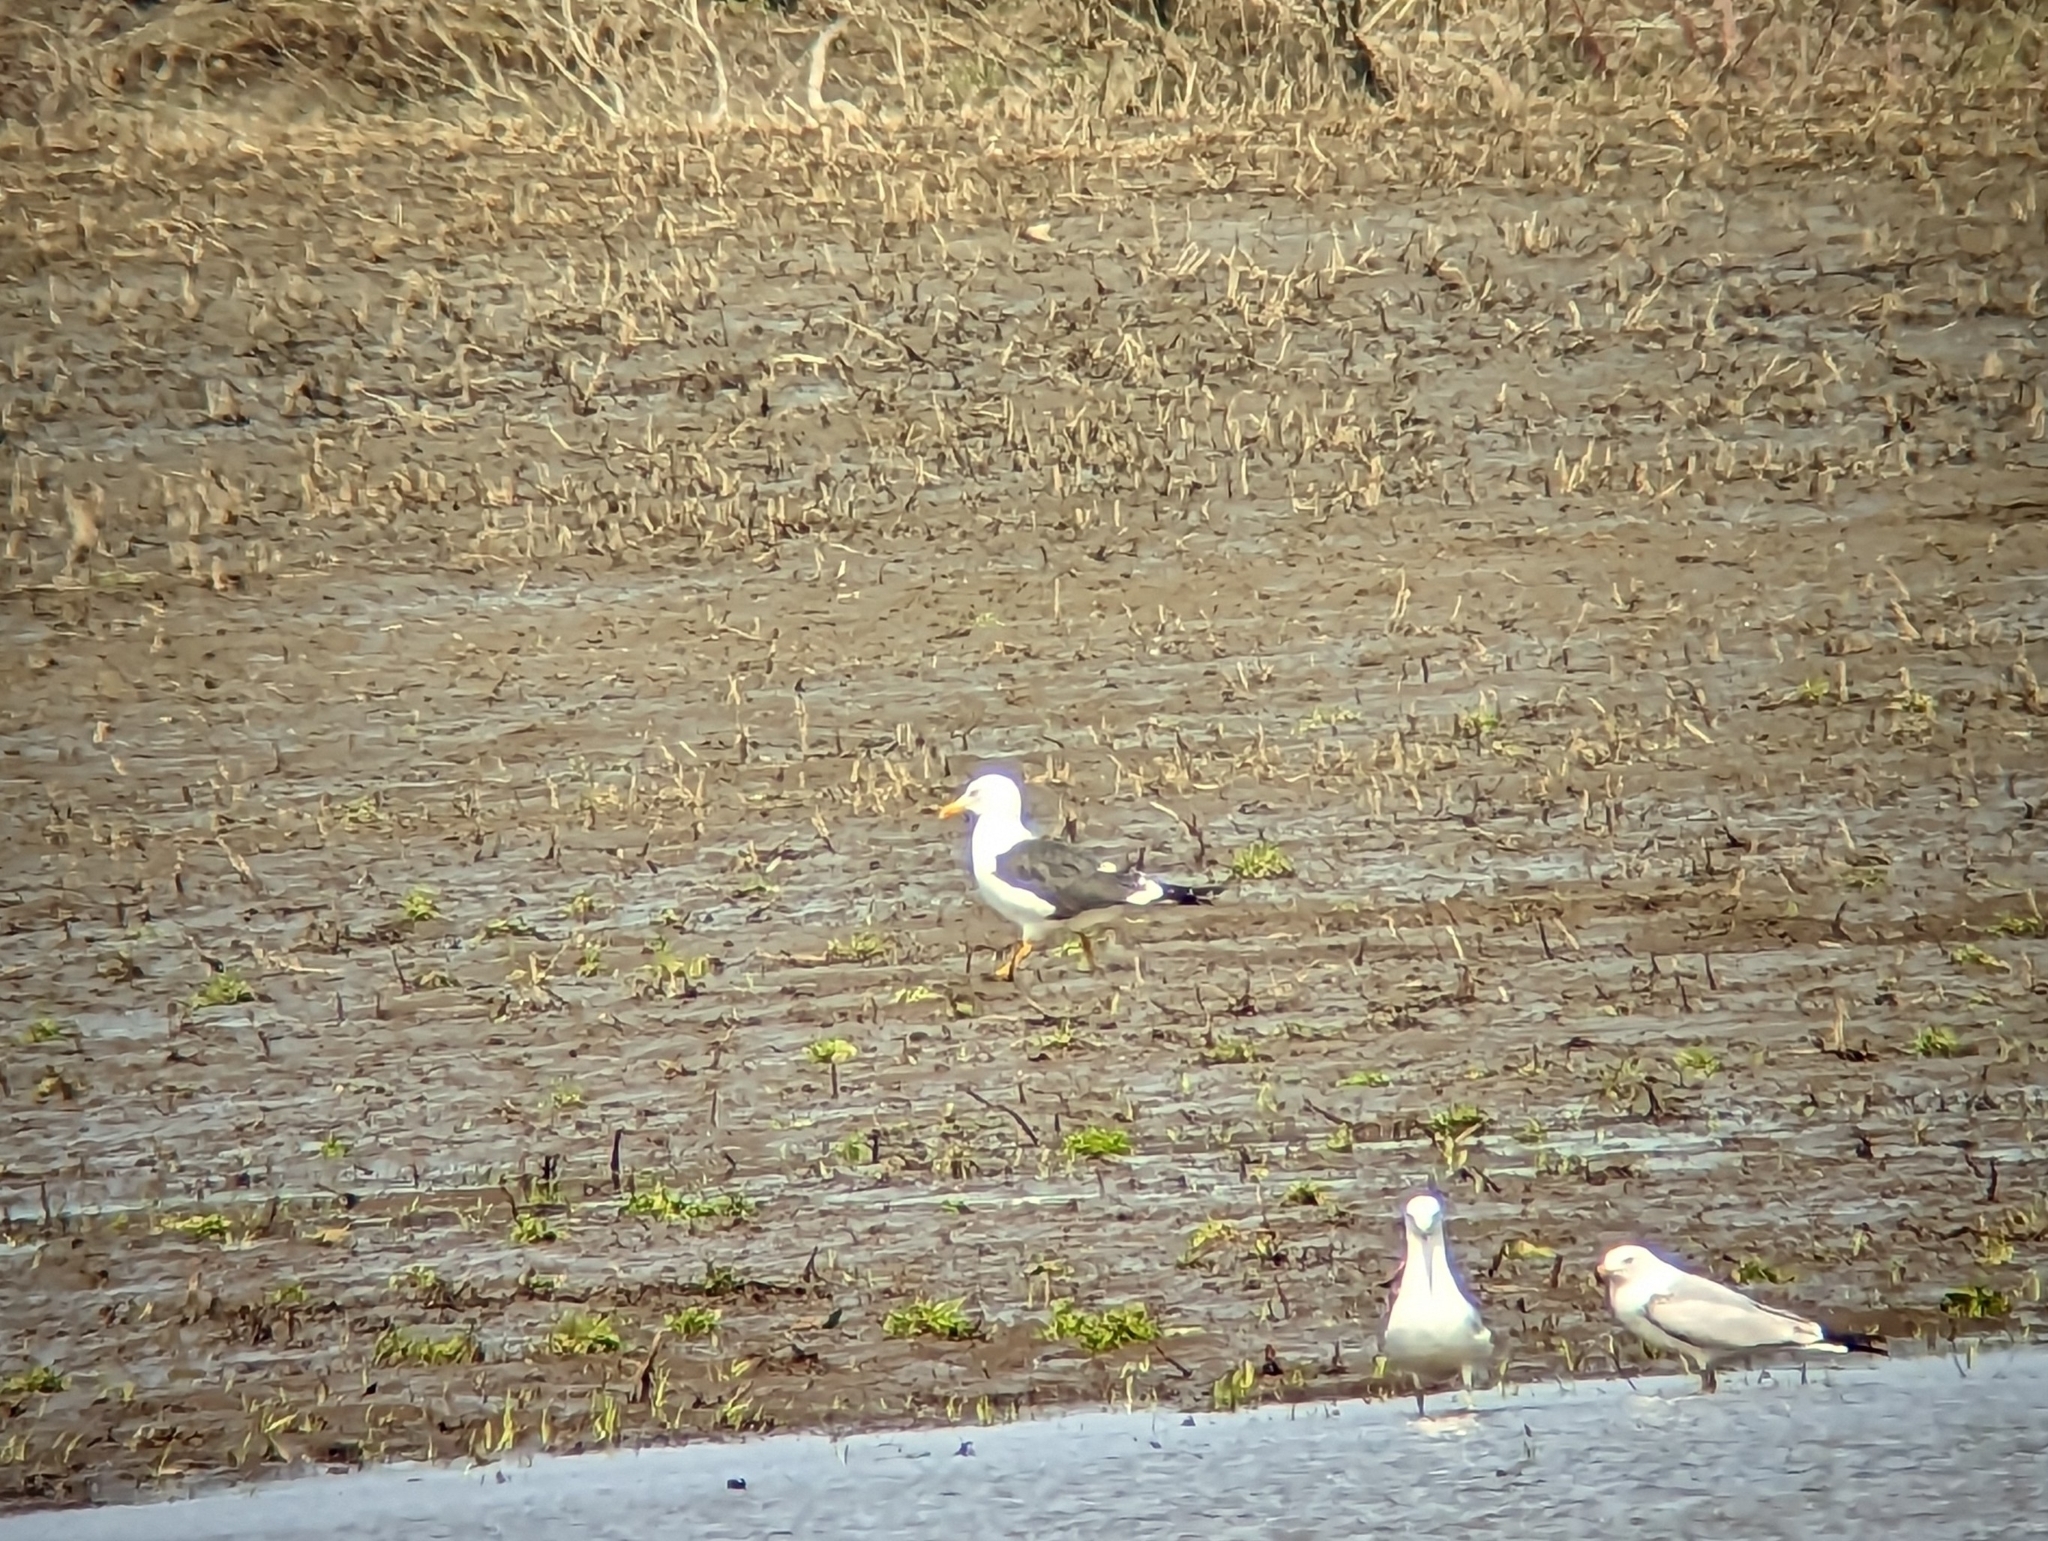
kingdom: Animalia
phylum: Chordata
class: Aves
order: Charadriiformes
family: Laridae
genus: Larus
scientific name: Larus fuscus
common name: Lesser black-backed gull
